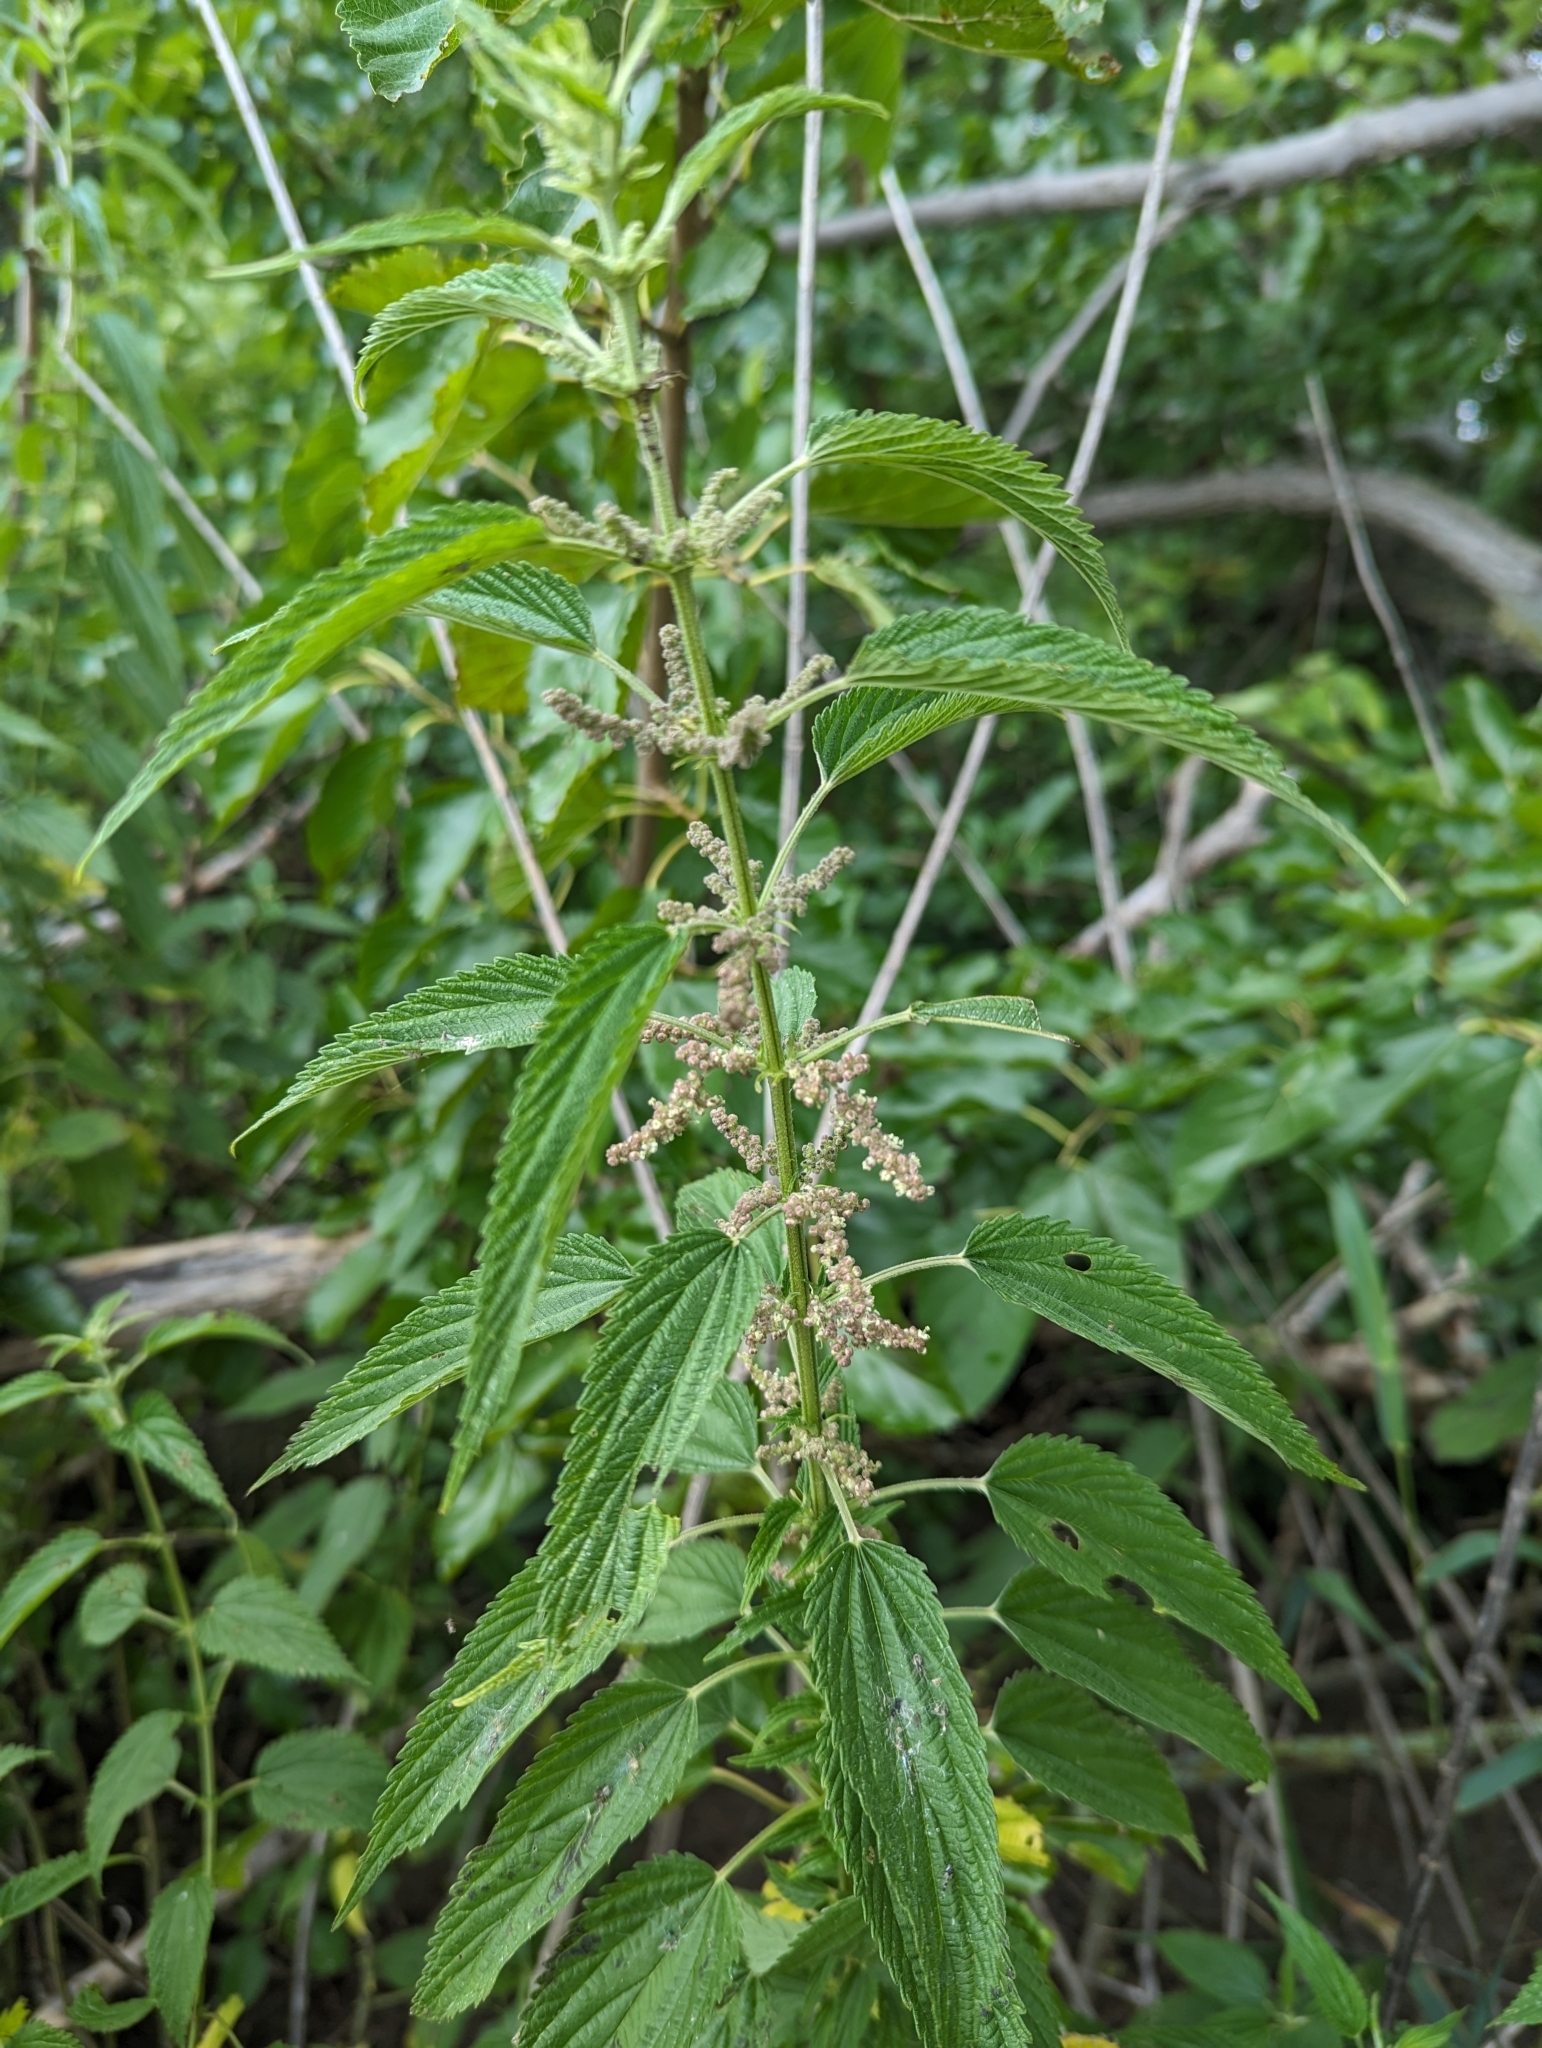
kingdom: Plantae
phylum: Tracheophyta
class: Magnoliopsida
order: Rosales
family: Urticaceae
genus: Urtica
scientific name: Urtica gracilis
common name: Slender stinging nettle
